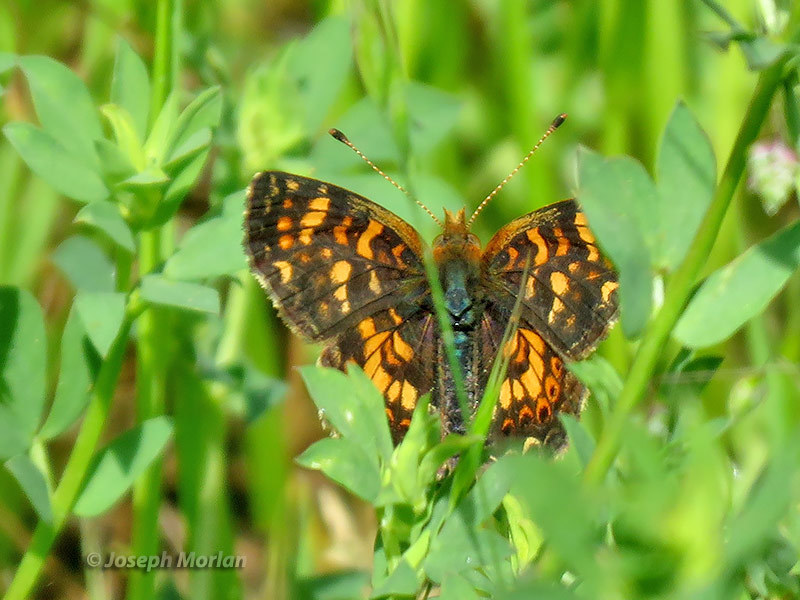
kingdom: Animalia
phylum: Arthropoda
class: Insecta
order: Lepidoptera
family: Nymphalidae
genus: Phyciodes
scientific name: Phyciodes tharos
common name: Pearl crescent
